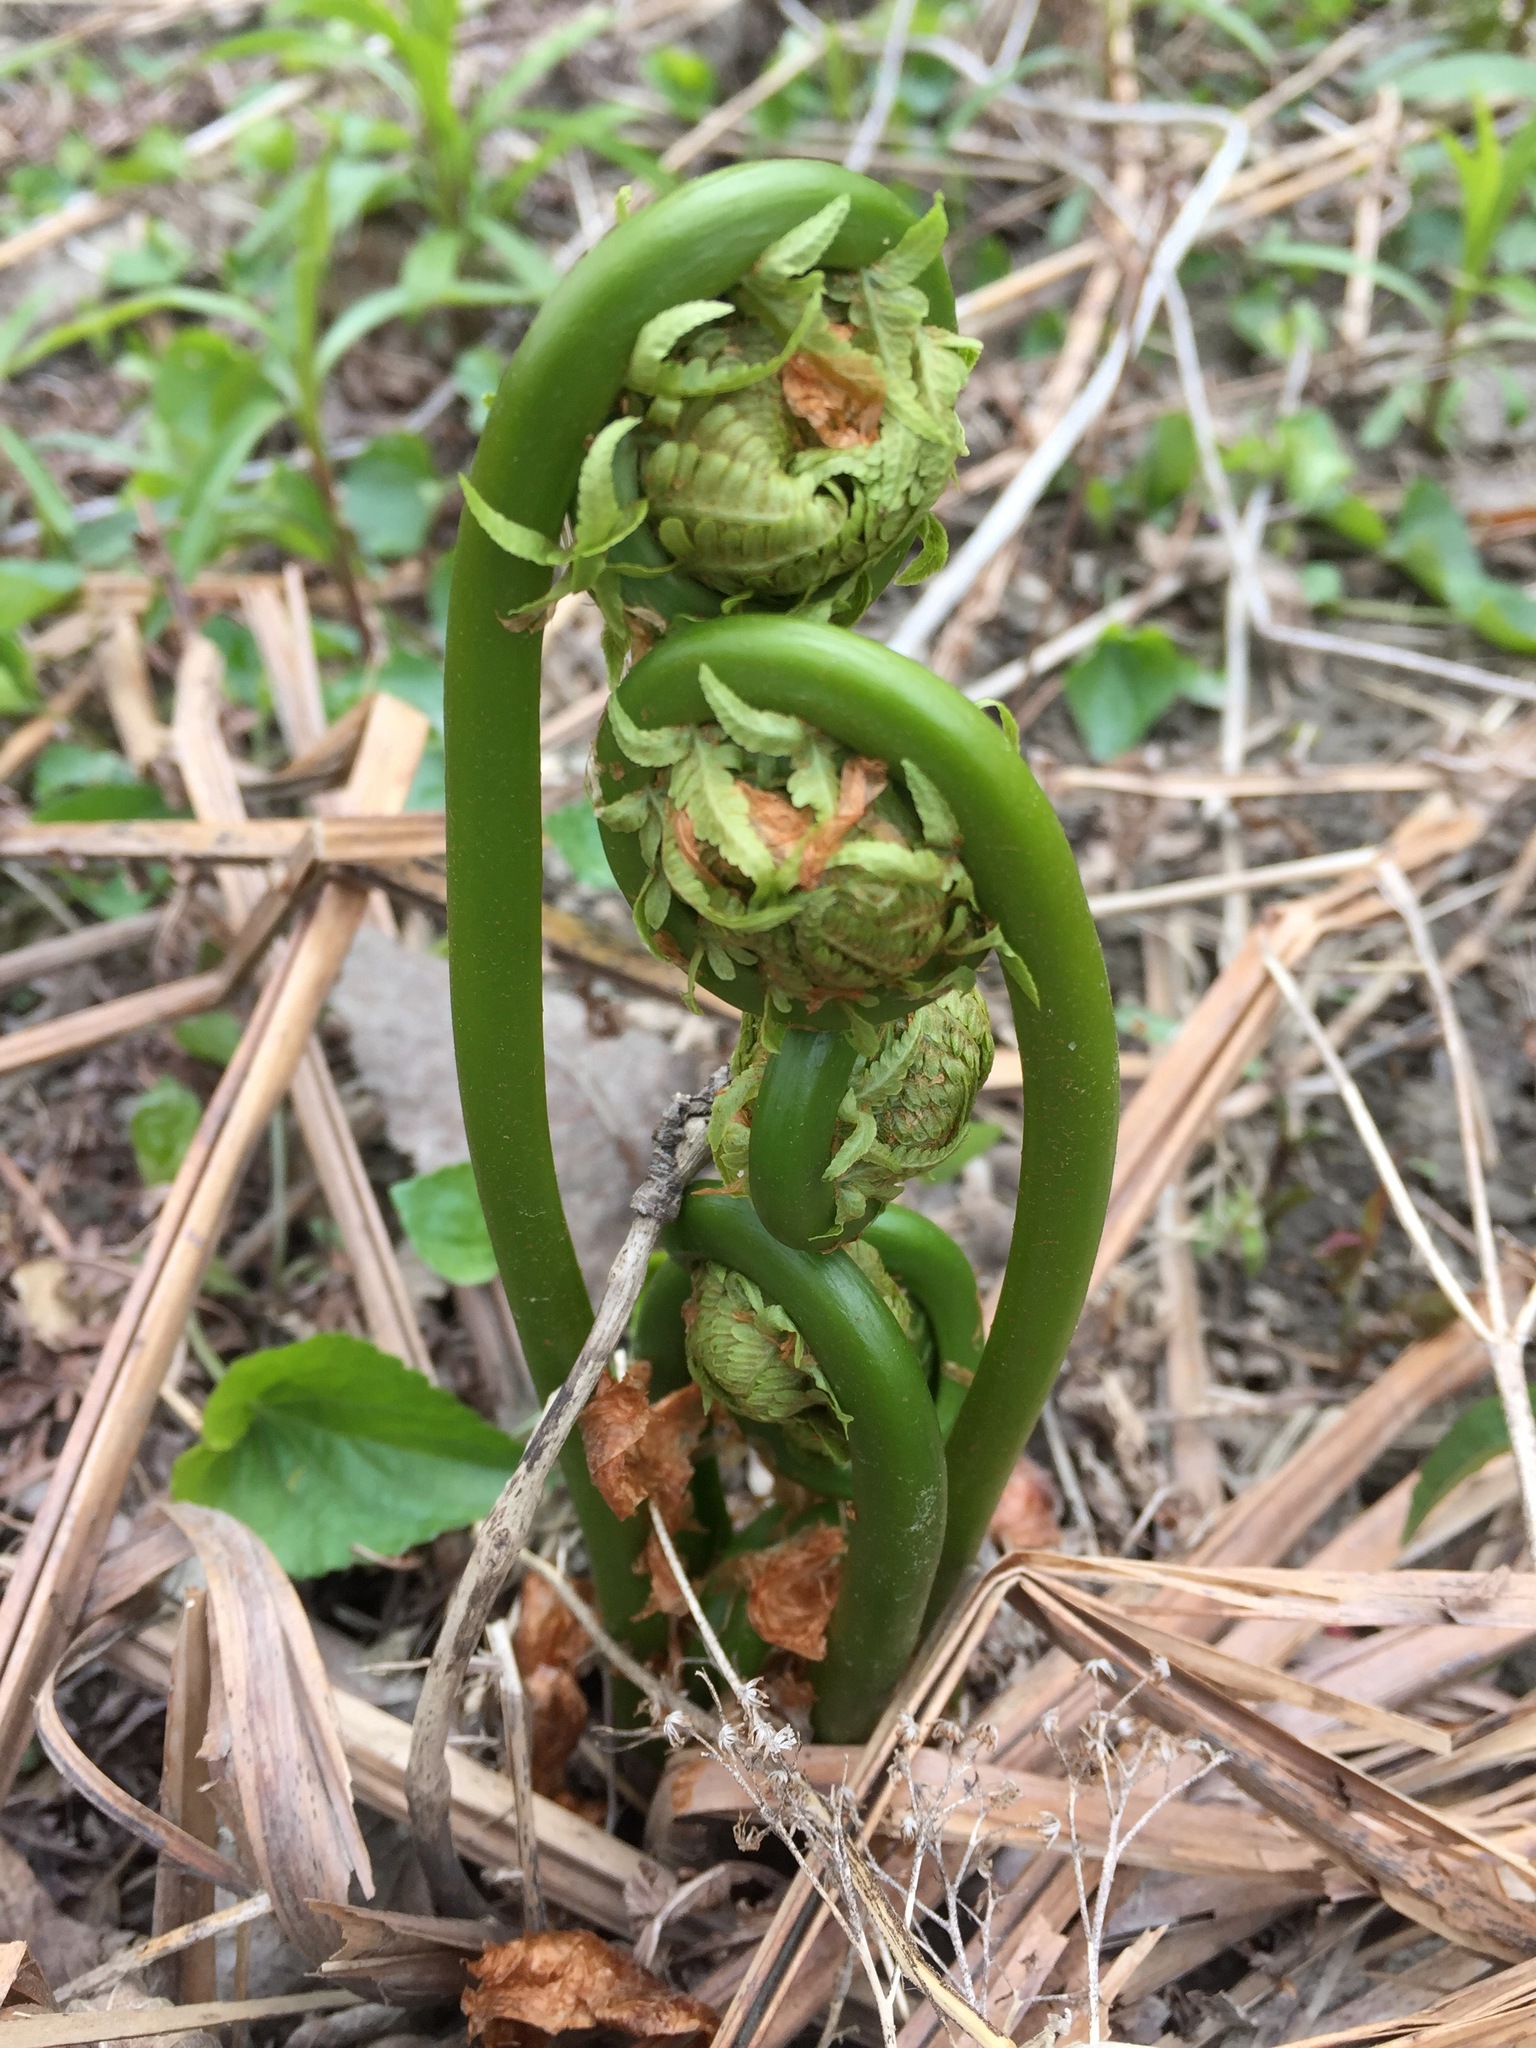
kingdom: Plantae
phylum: Tracheophyta
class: Polypodiopsida
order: Polypodiales
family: Onocleaceae
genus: Matteuccia
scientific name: Matteuccia struthiopteris
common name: Ostrich fern
